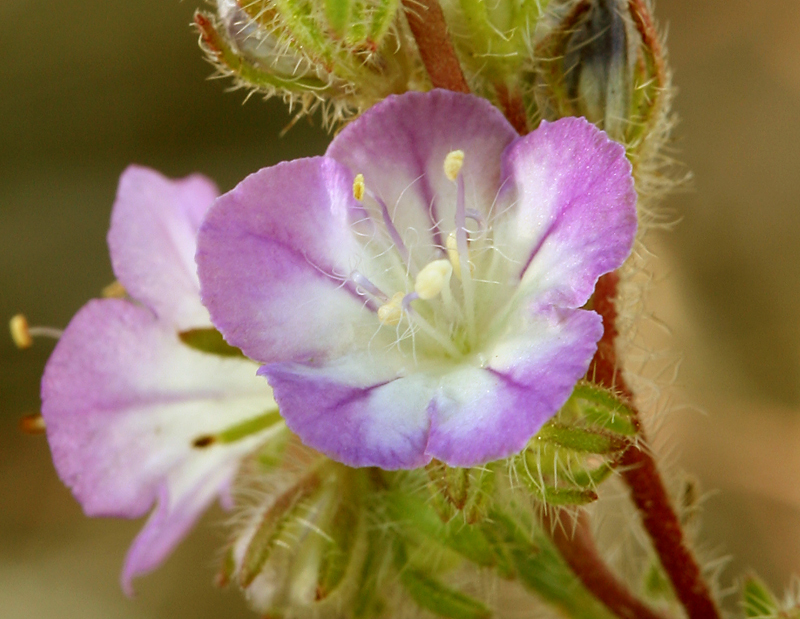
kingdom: Plantae
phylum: Tracheophyta
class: Magnoliopsida
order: Boraginales
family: Hydrophyllaceae
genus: Phacelia
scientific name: Phacelia linearis
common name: Linear-leaved phacelia
